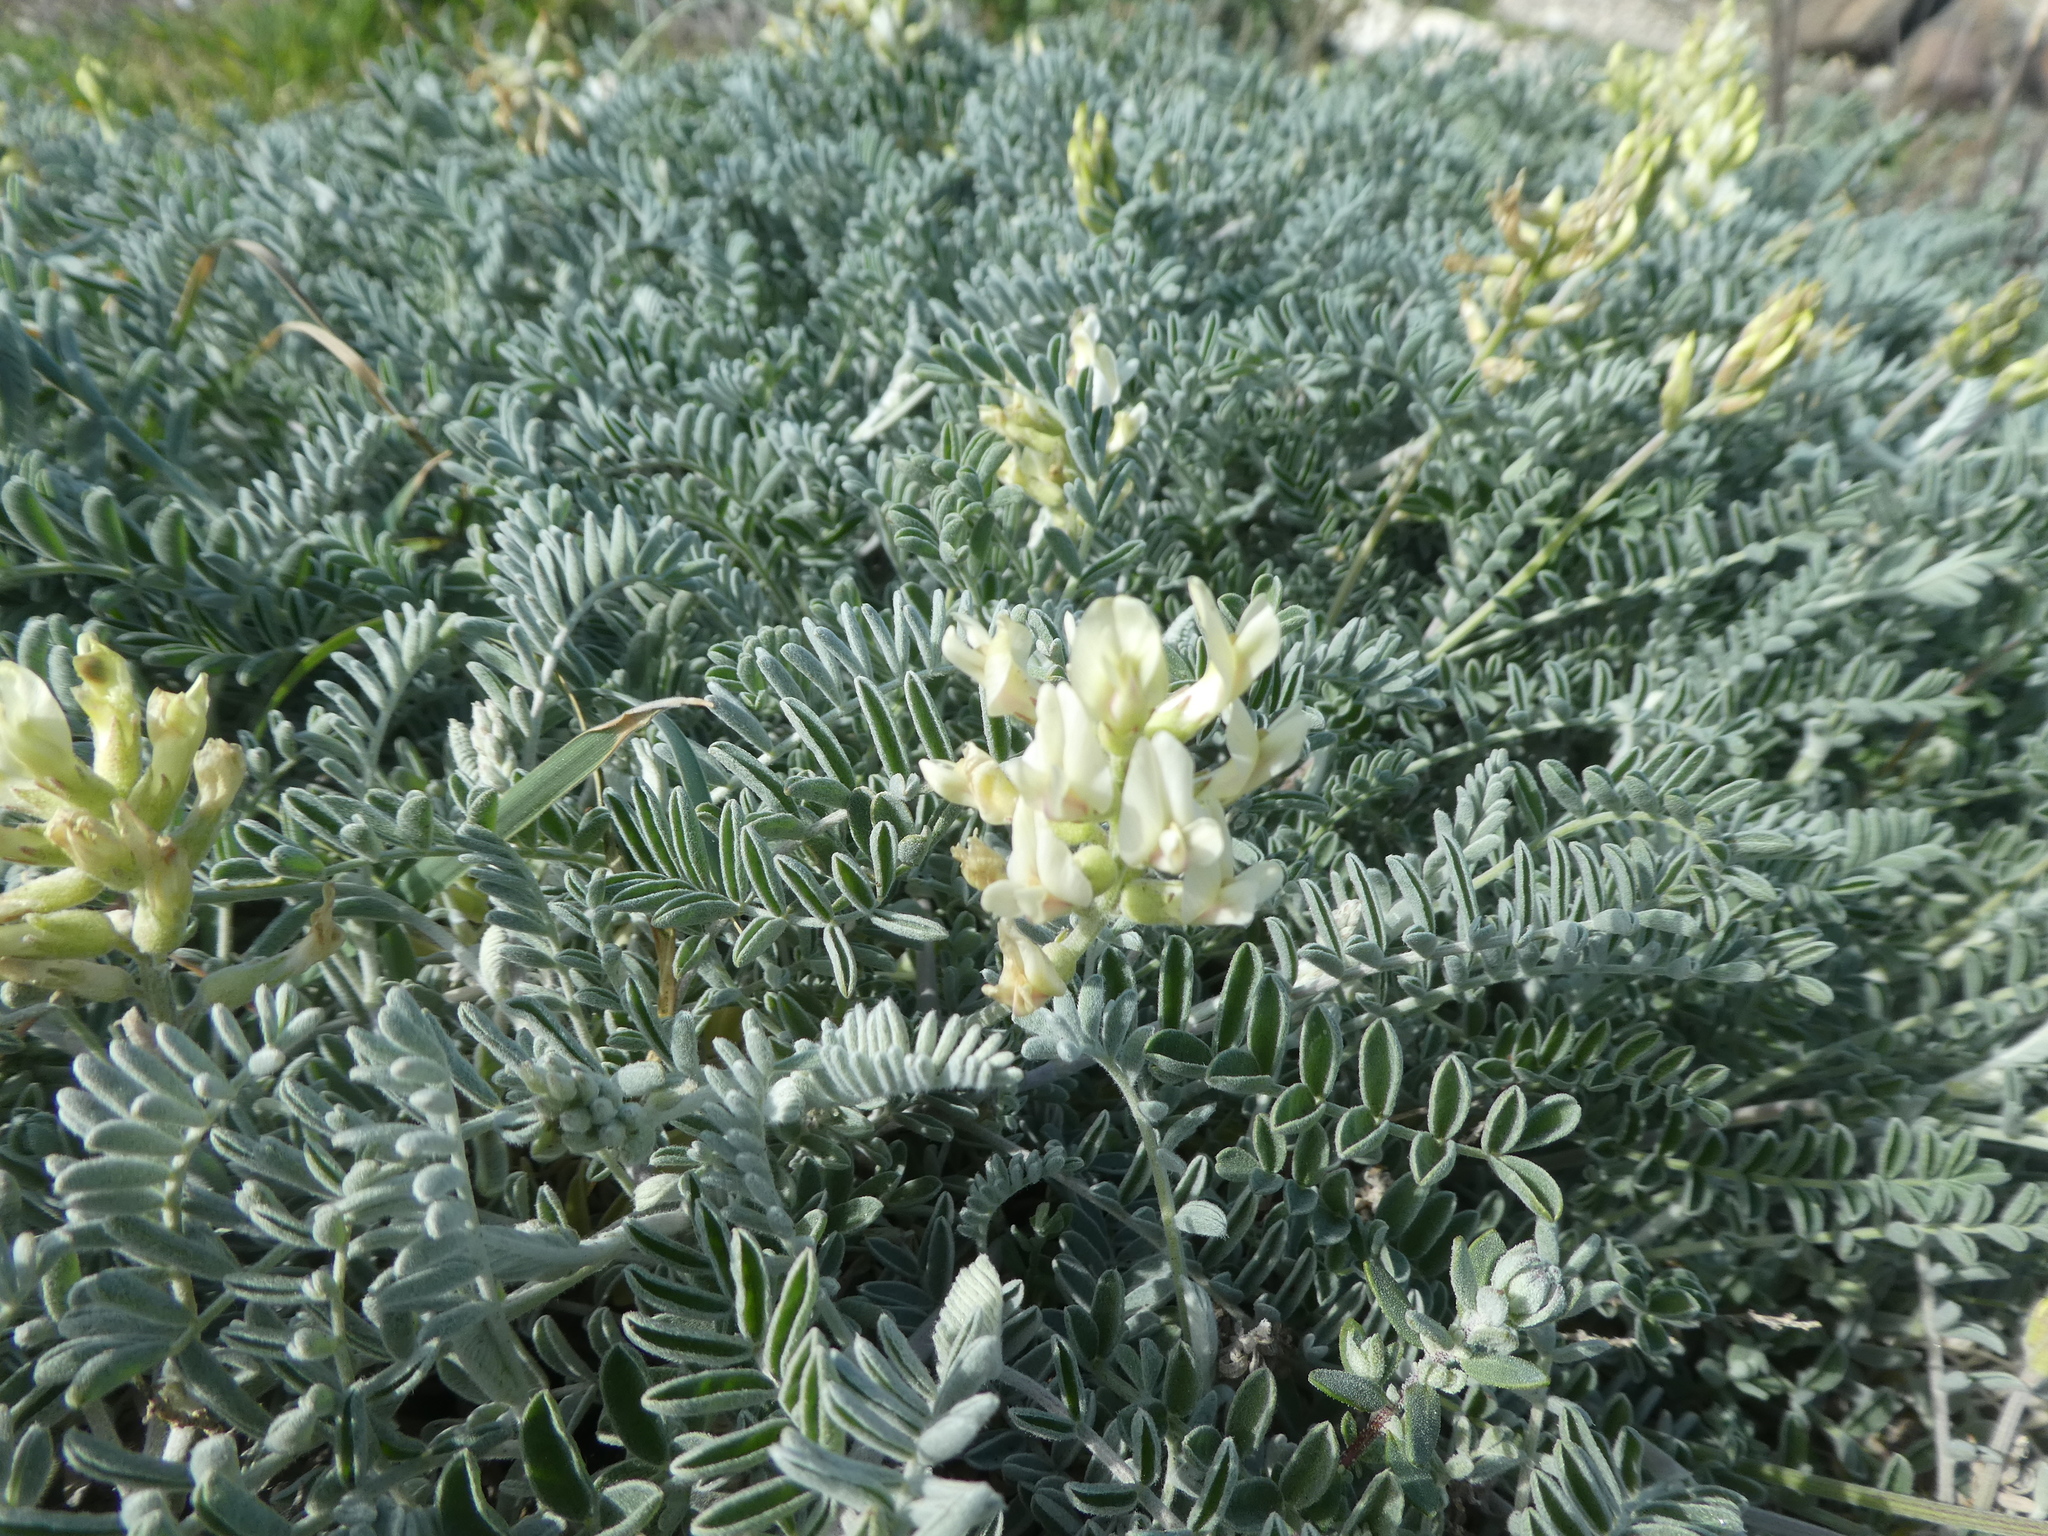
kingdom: Plantae
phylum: Tracheophyta
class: Magnoliopsida
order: Fabales
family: Fabaceae
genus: Astragalus
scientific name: Astragalus miguelensis
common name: San miguel milk-vetch
